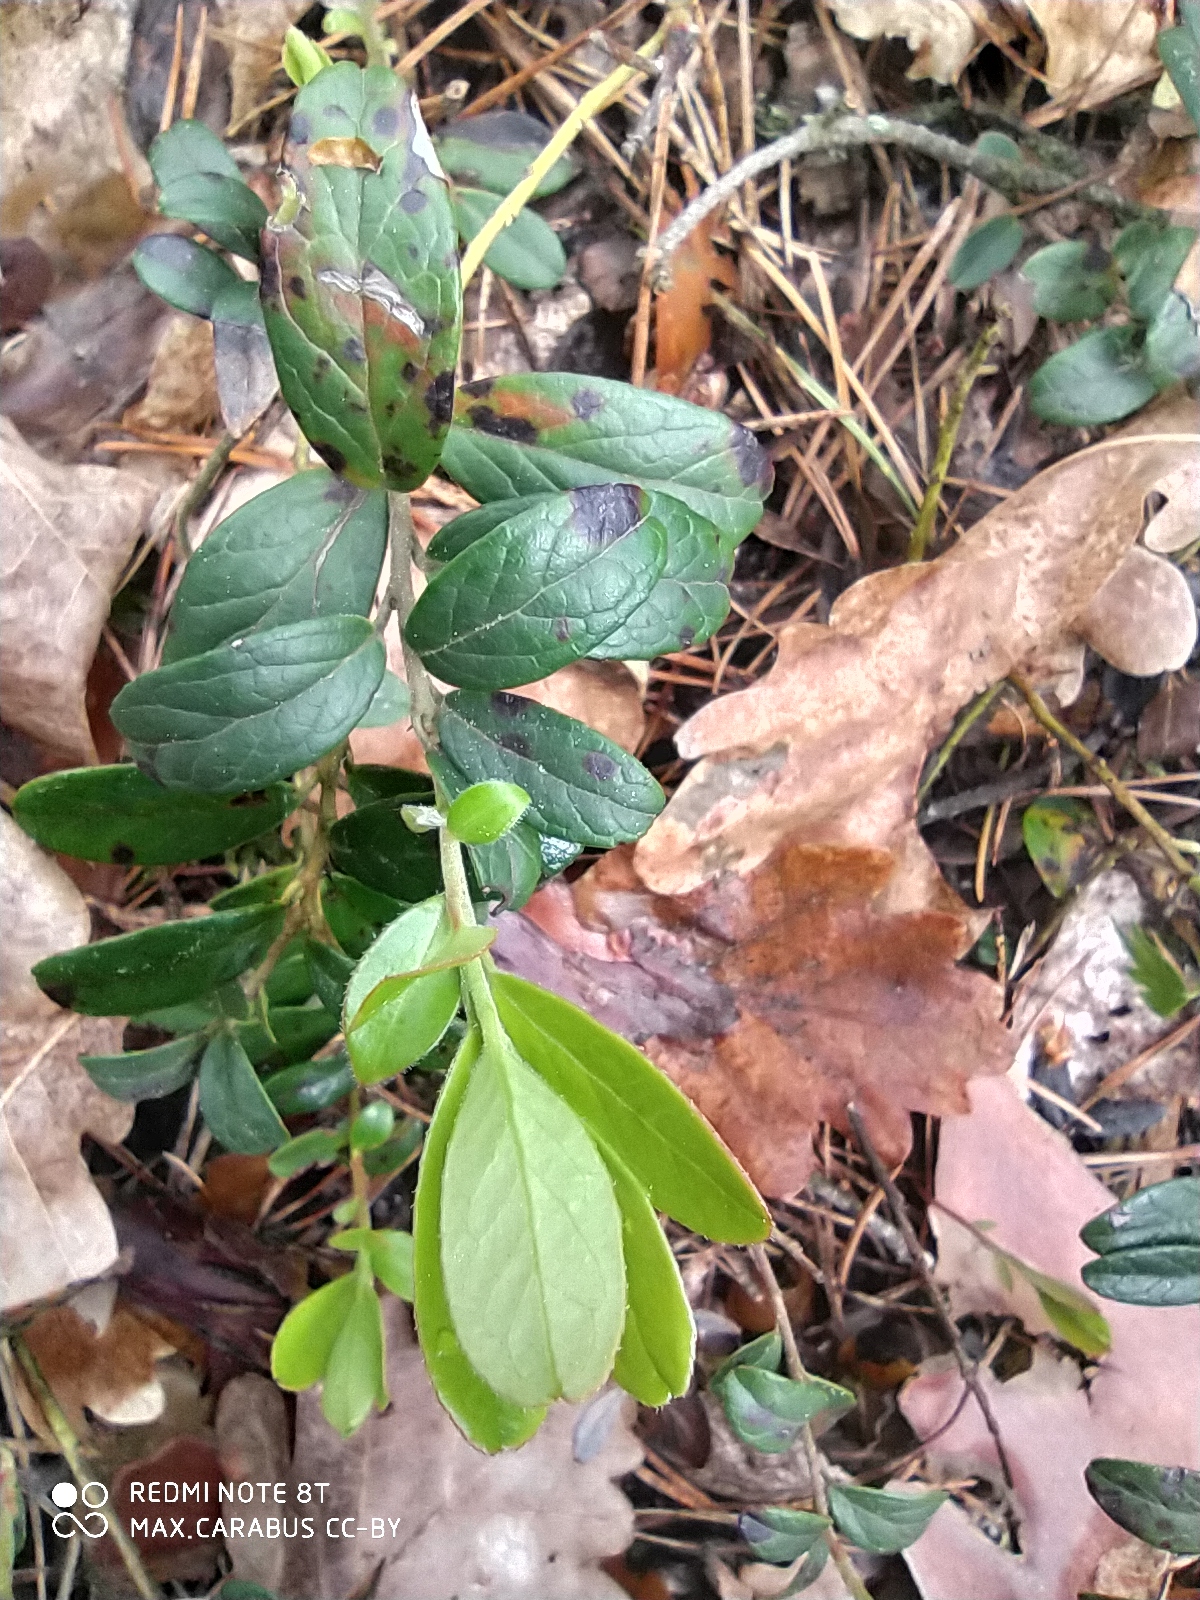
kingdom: Plantae
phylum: Tracheophyta
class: Magnoliopsida
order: Ericales
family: Ericaceae
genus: Vaccinium
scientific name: Vaccinium vitis-idaea
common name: Cowberry
